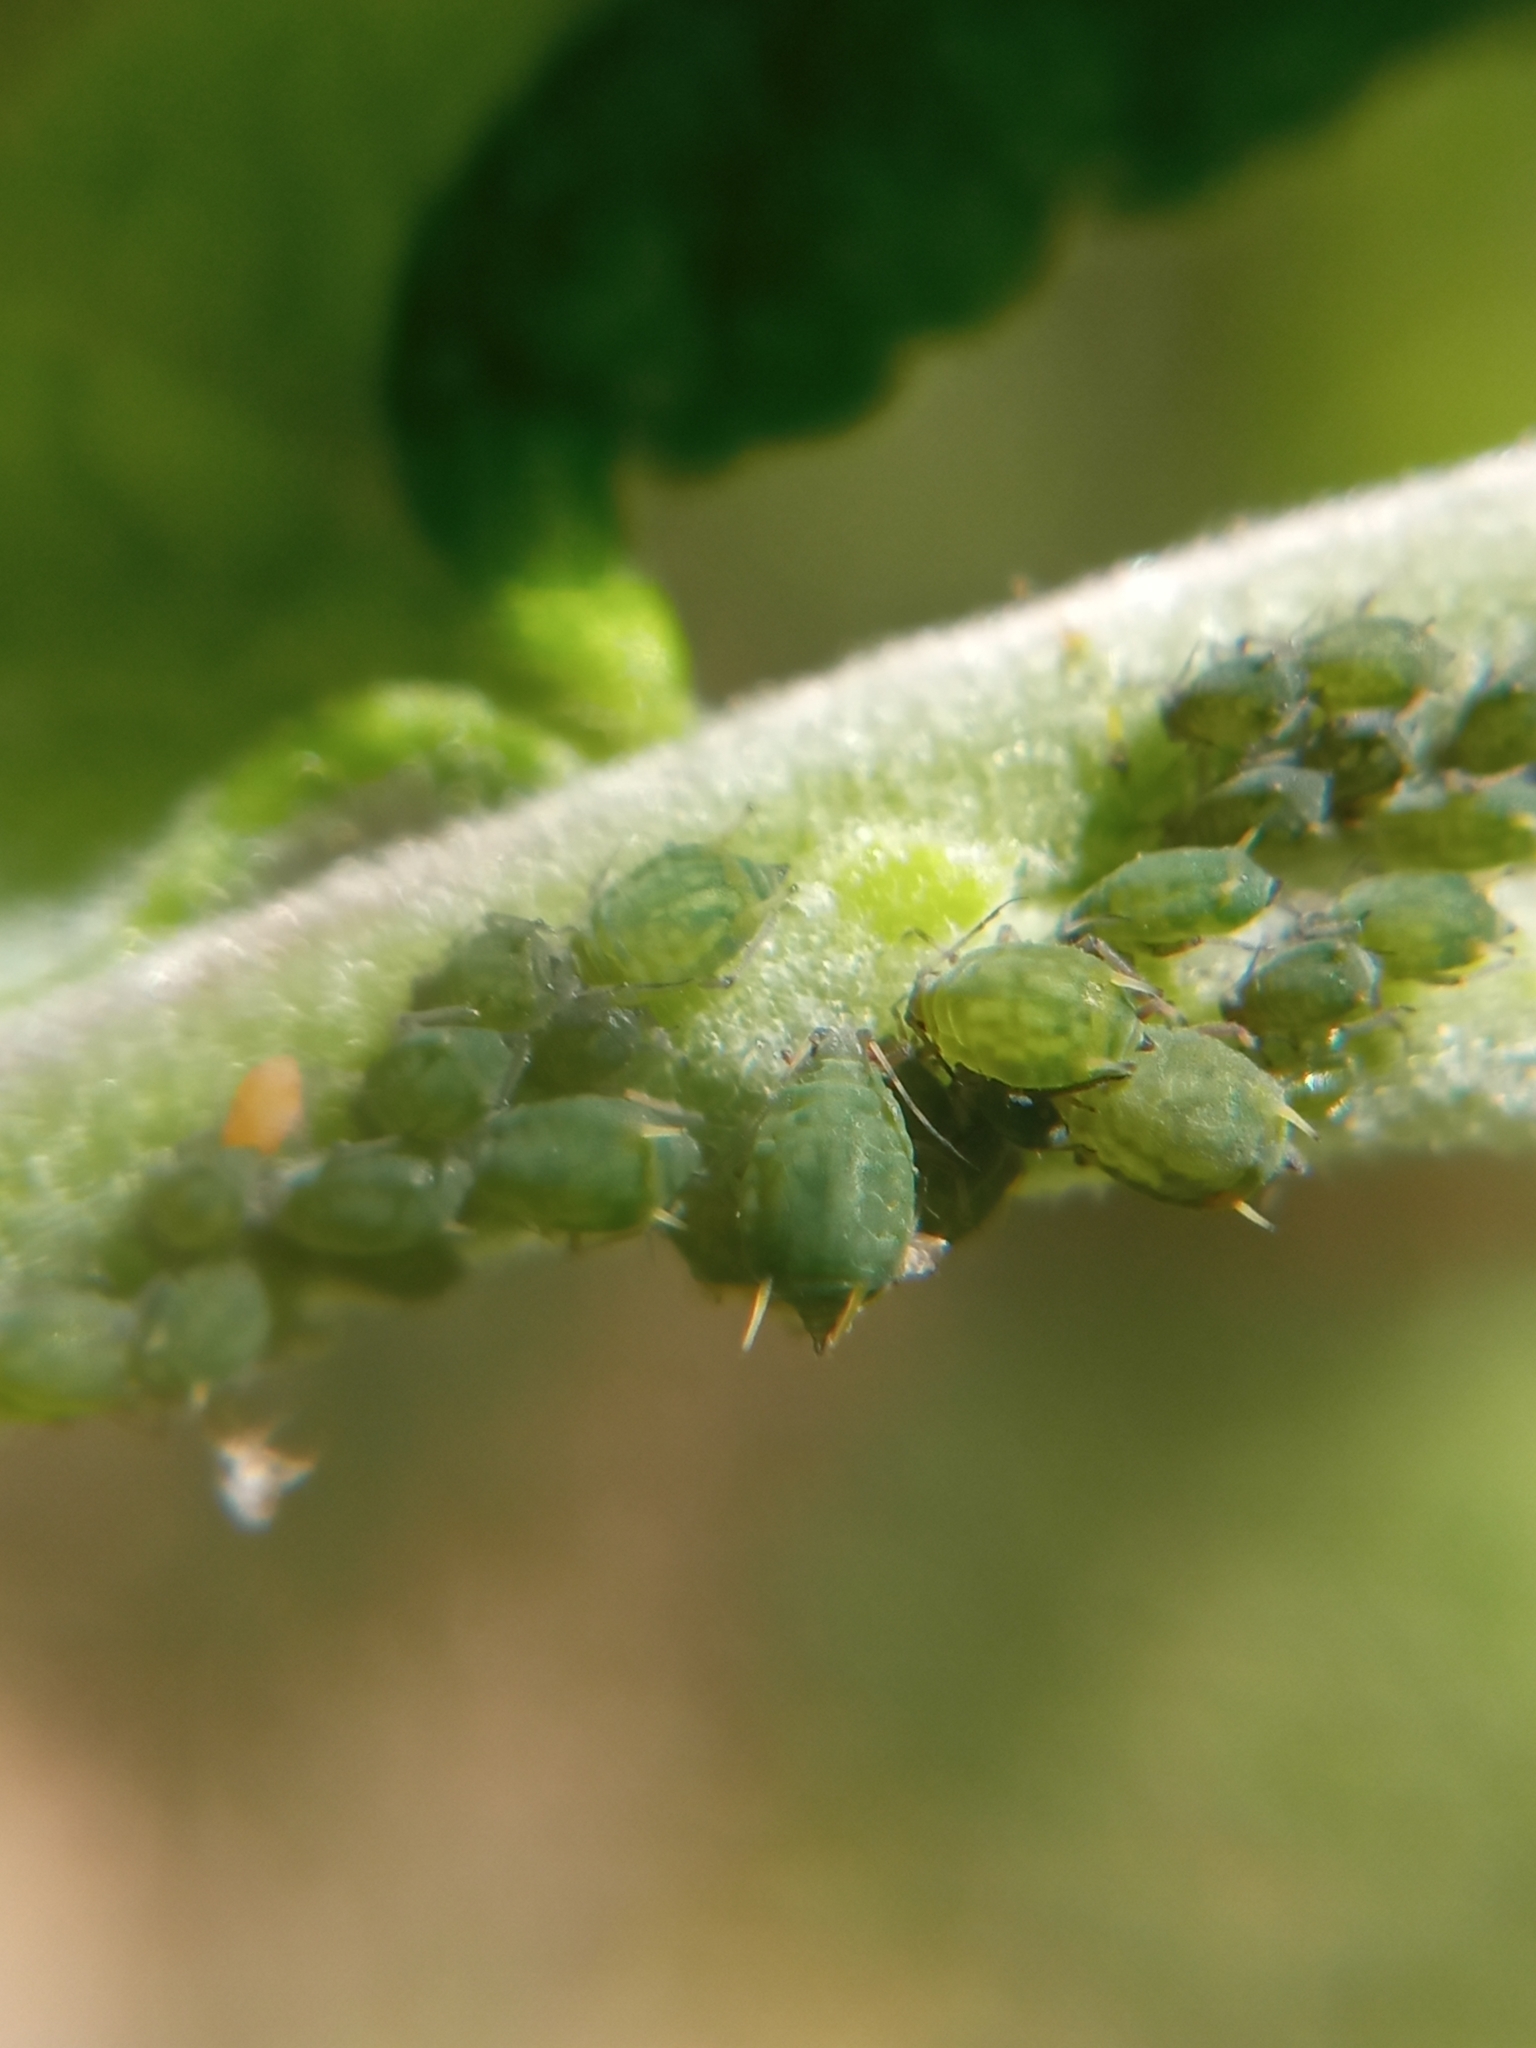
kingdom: Animalia
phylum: Arthropoda
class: Insecta
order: Hemiptera
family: Aphididae
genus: Aphis
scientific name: Aphis farinosa
